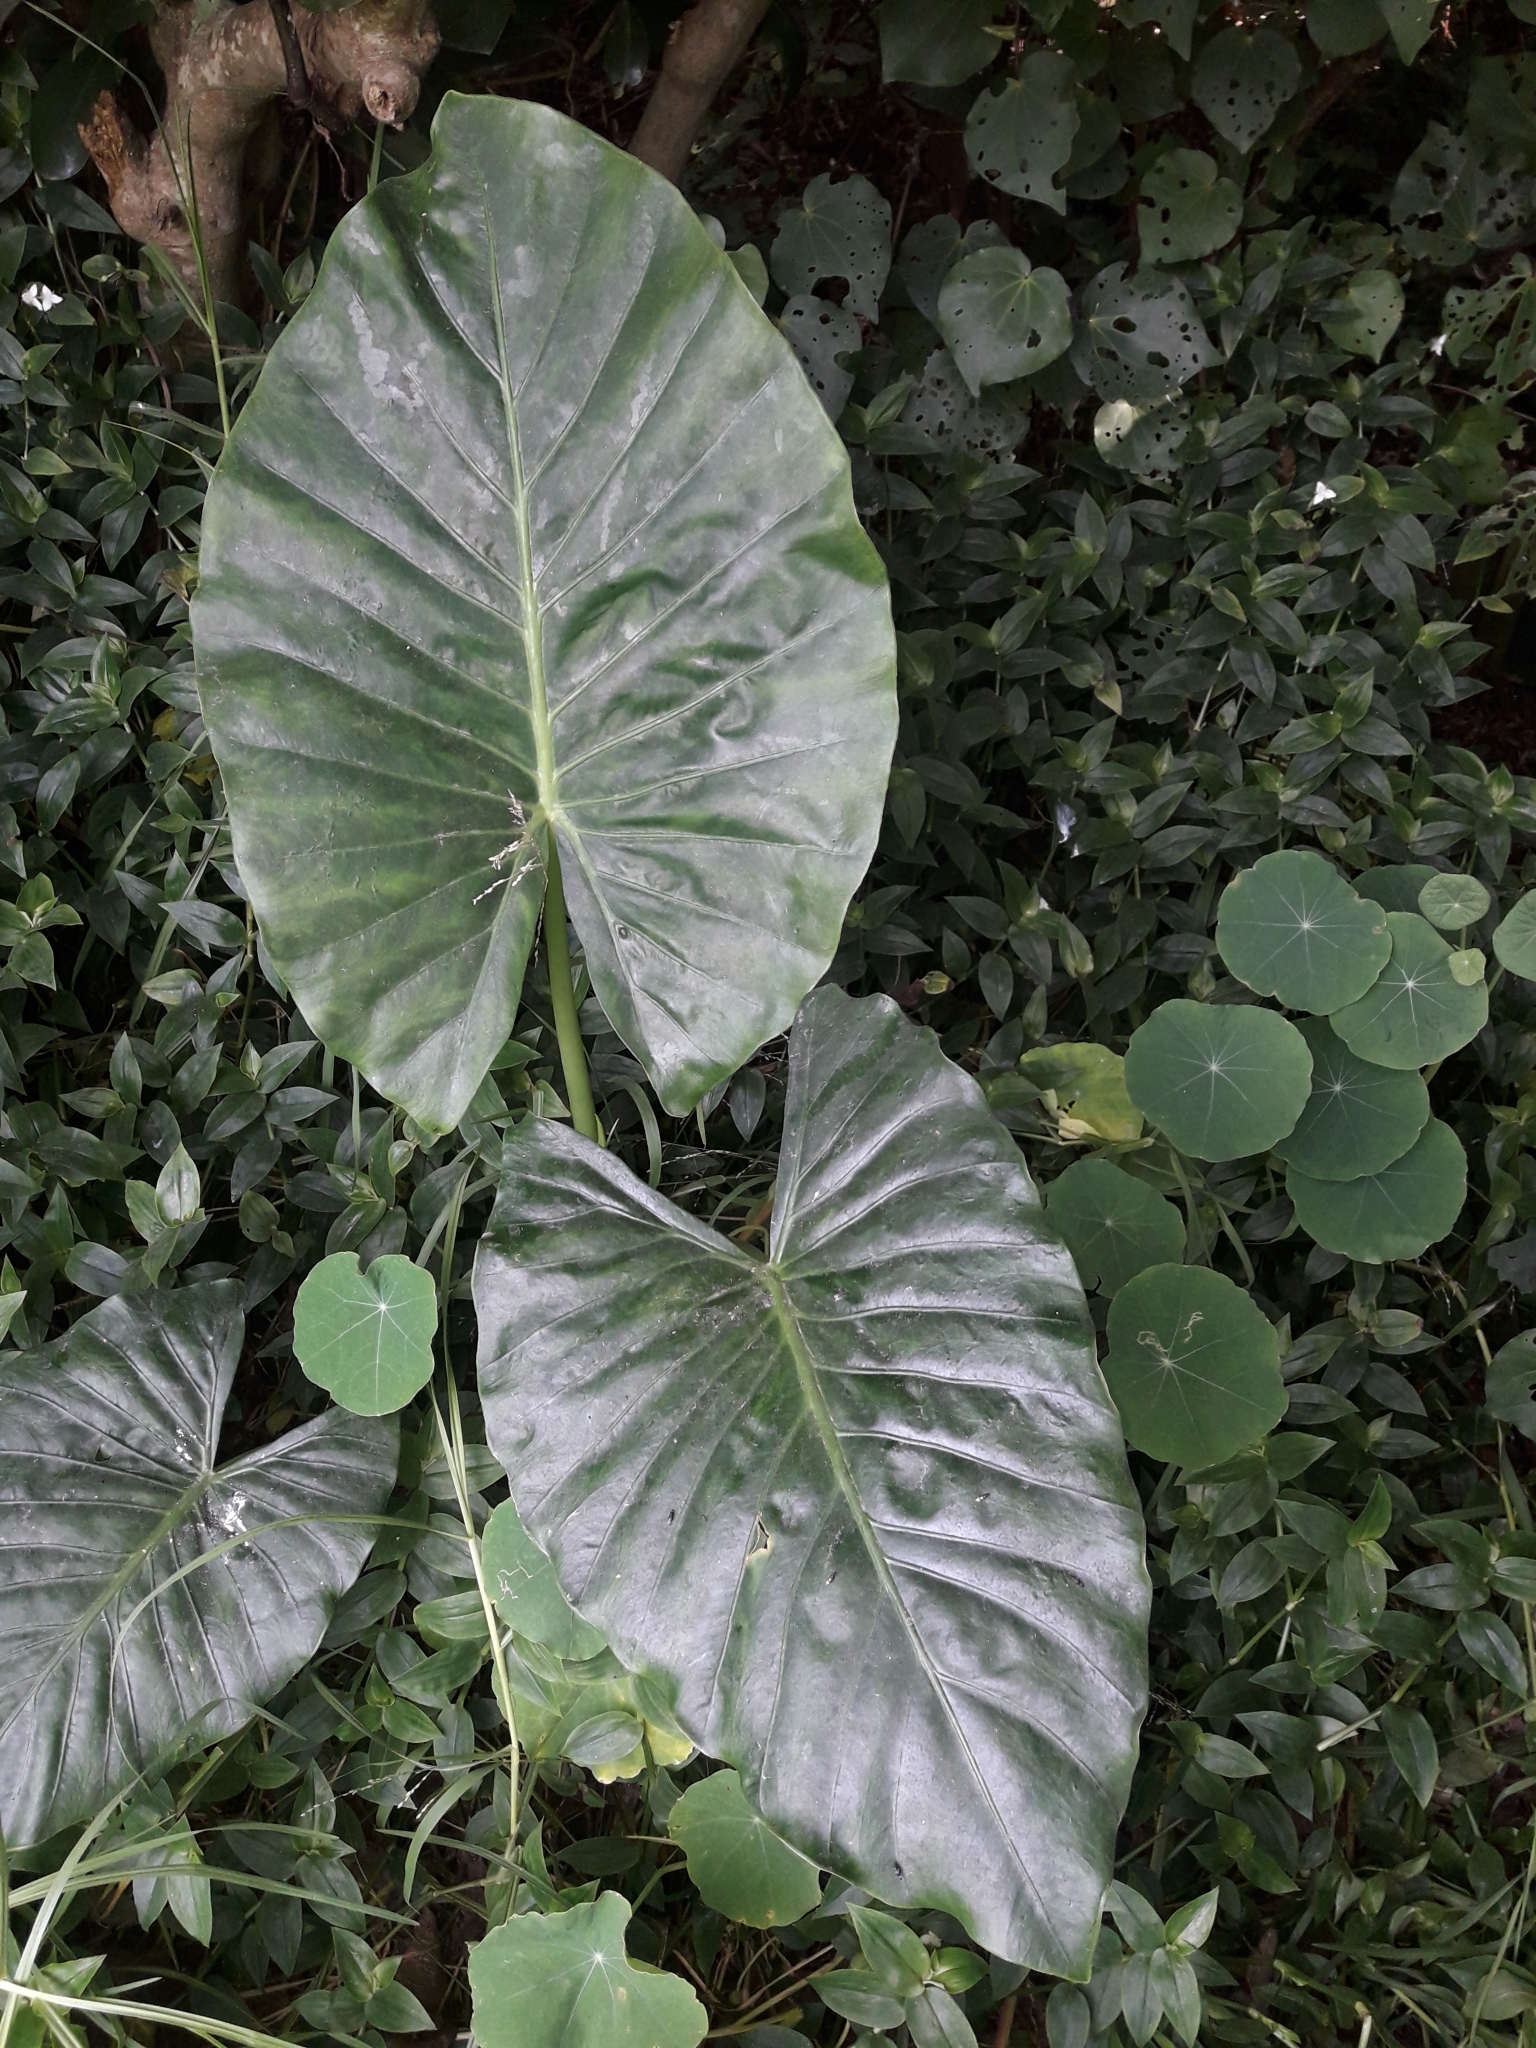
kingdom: Plantae
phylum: Tracheophyta
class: Liliopsida
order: Alismatales
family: Araceae
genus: Alocasia
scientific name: Alocasia brisbanensis
